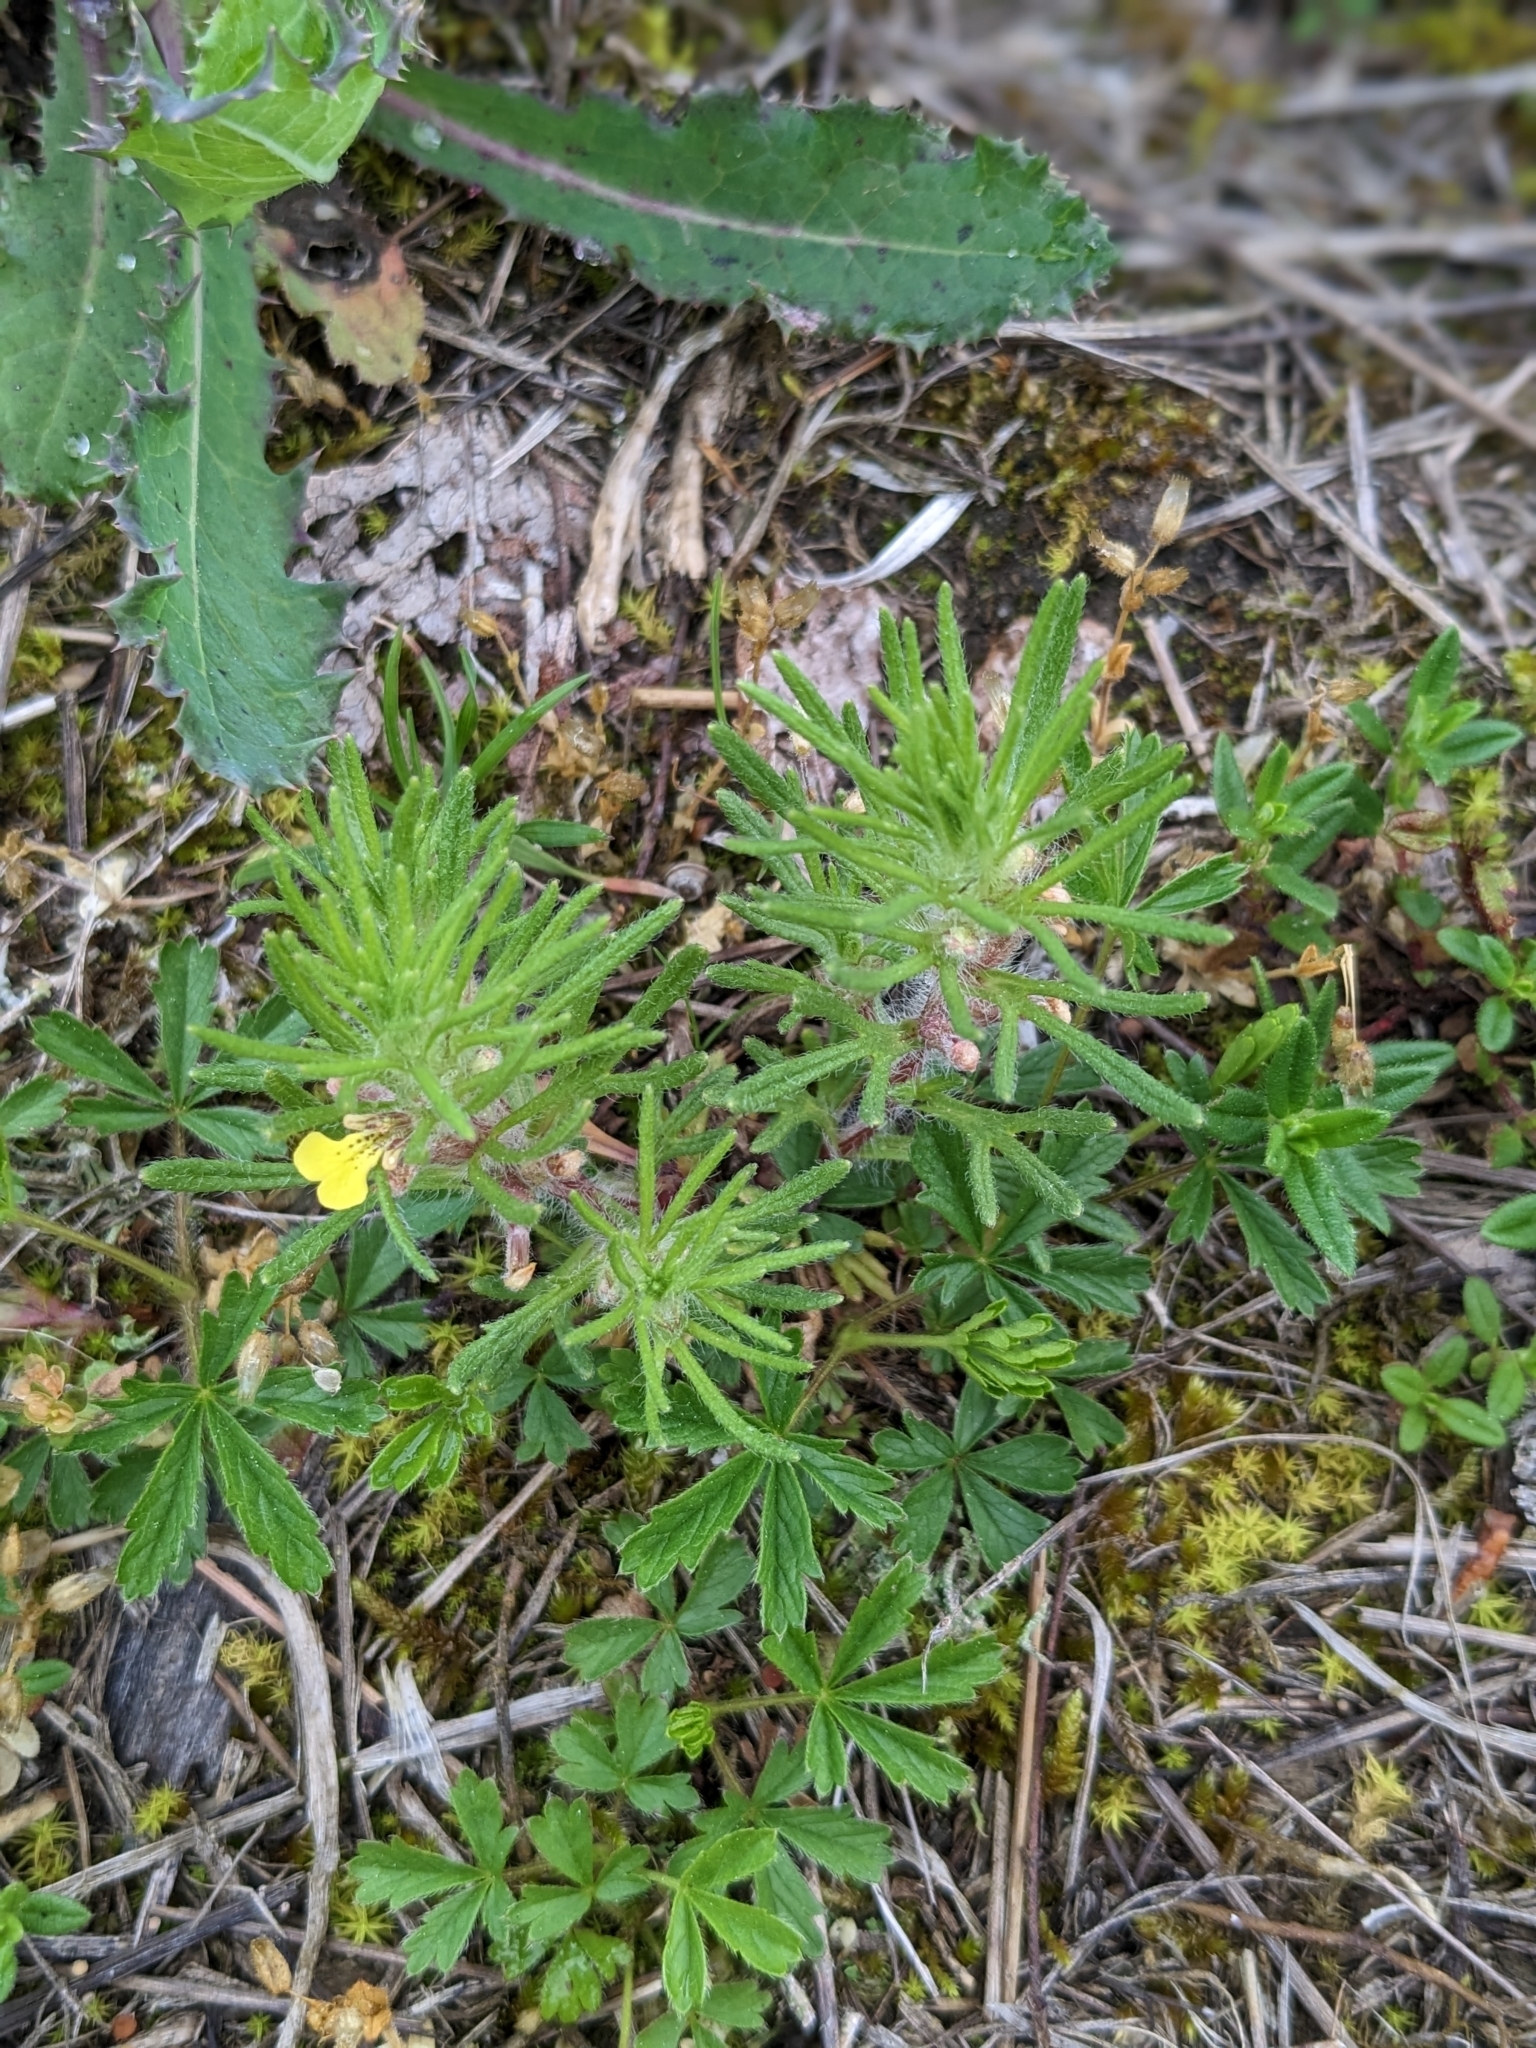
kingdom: Plantae
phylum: Tracheophyta
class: Magnoliopsida
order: Lamiales
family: Lamiaceae
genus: Ajuga
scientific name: Ajuga chamaepitys
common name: Ground-pine
